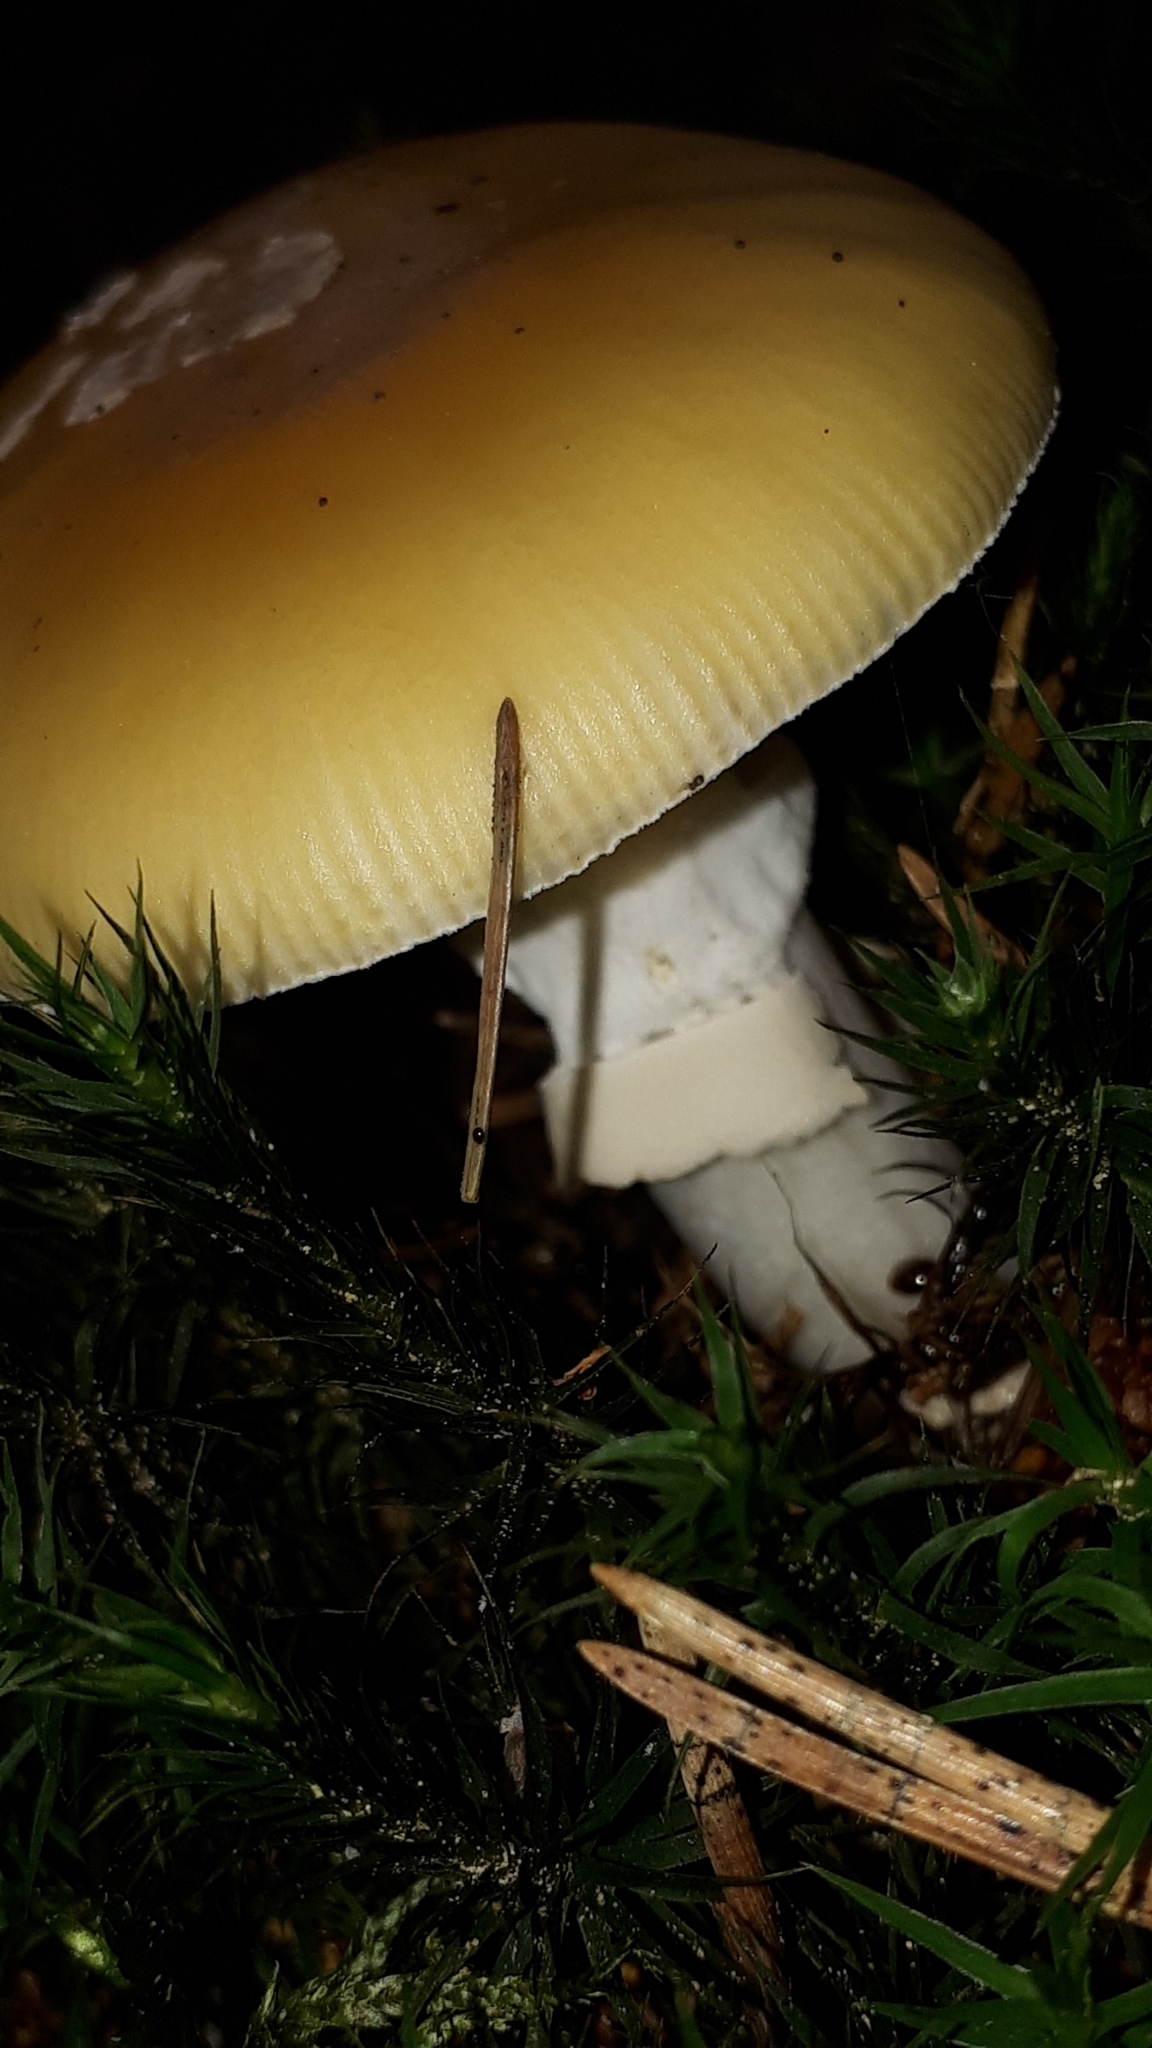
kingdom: Fungi
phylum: Basidiomycota
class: Agaricomycetes
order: Agaricales
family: Amanitaceae
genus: Amanita
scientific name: Amanita gemmata
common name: Jewelled amanita
